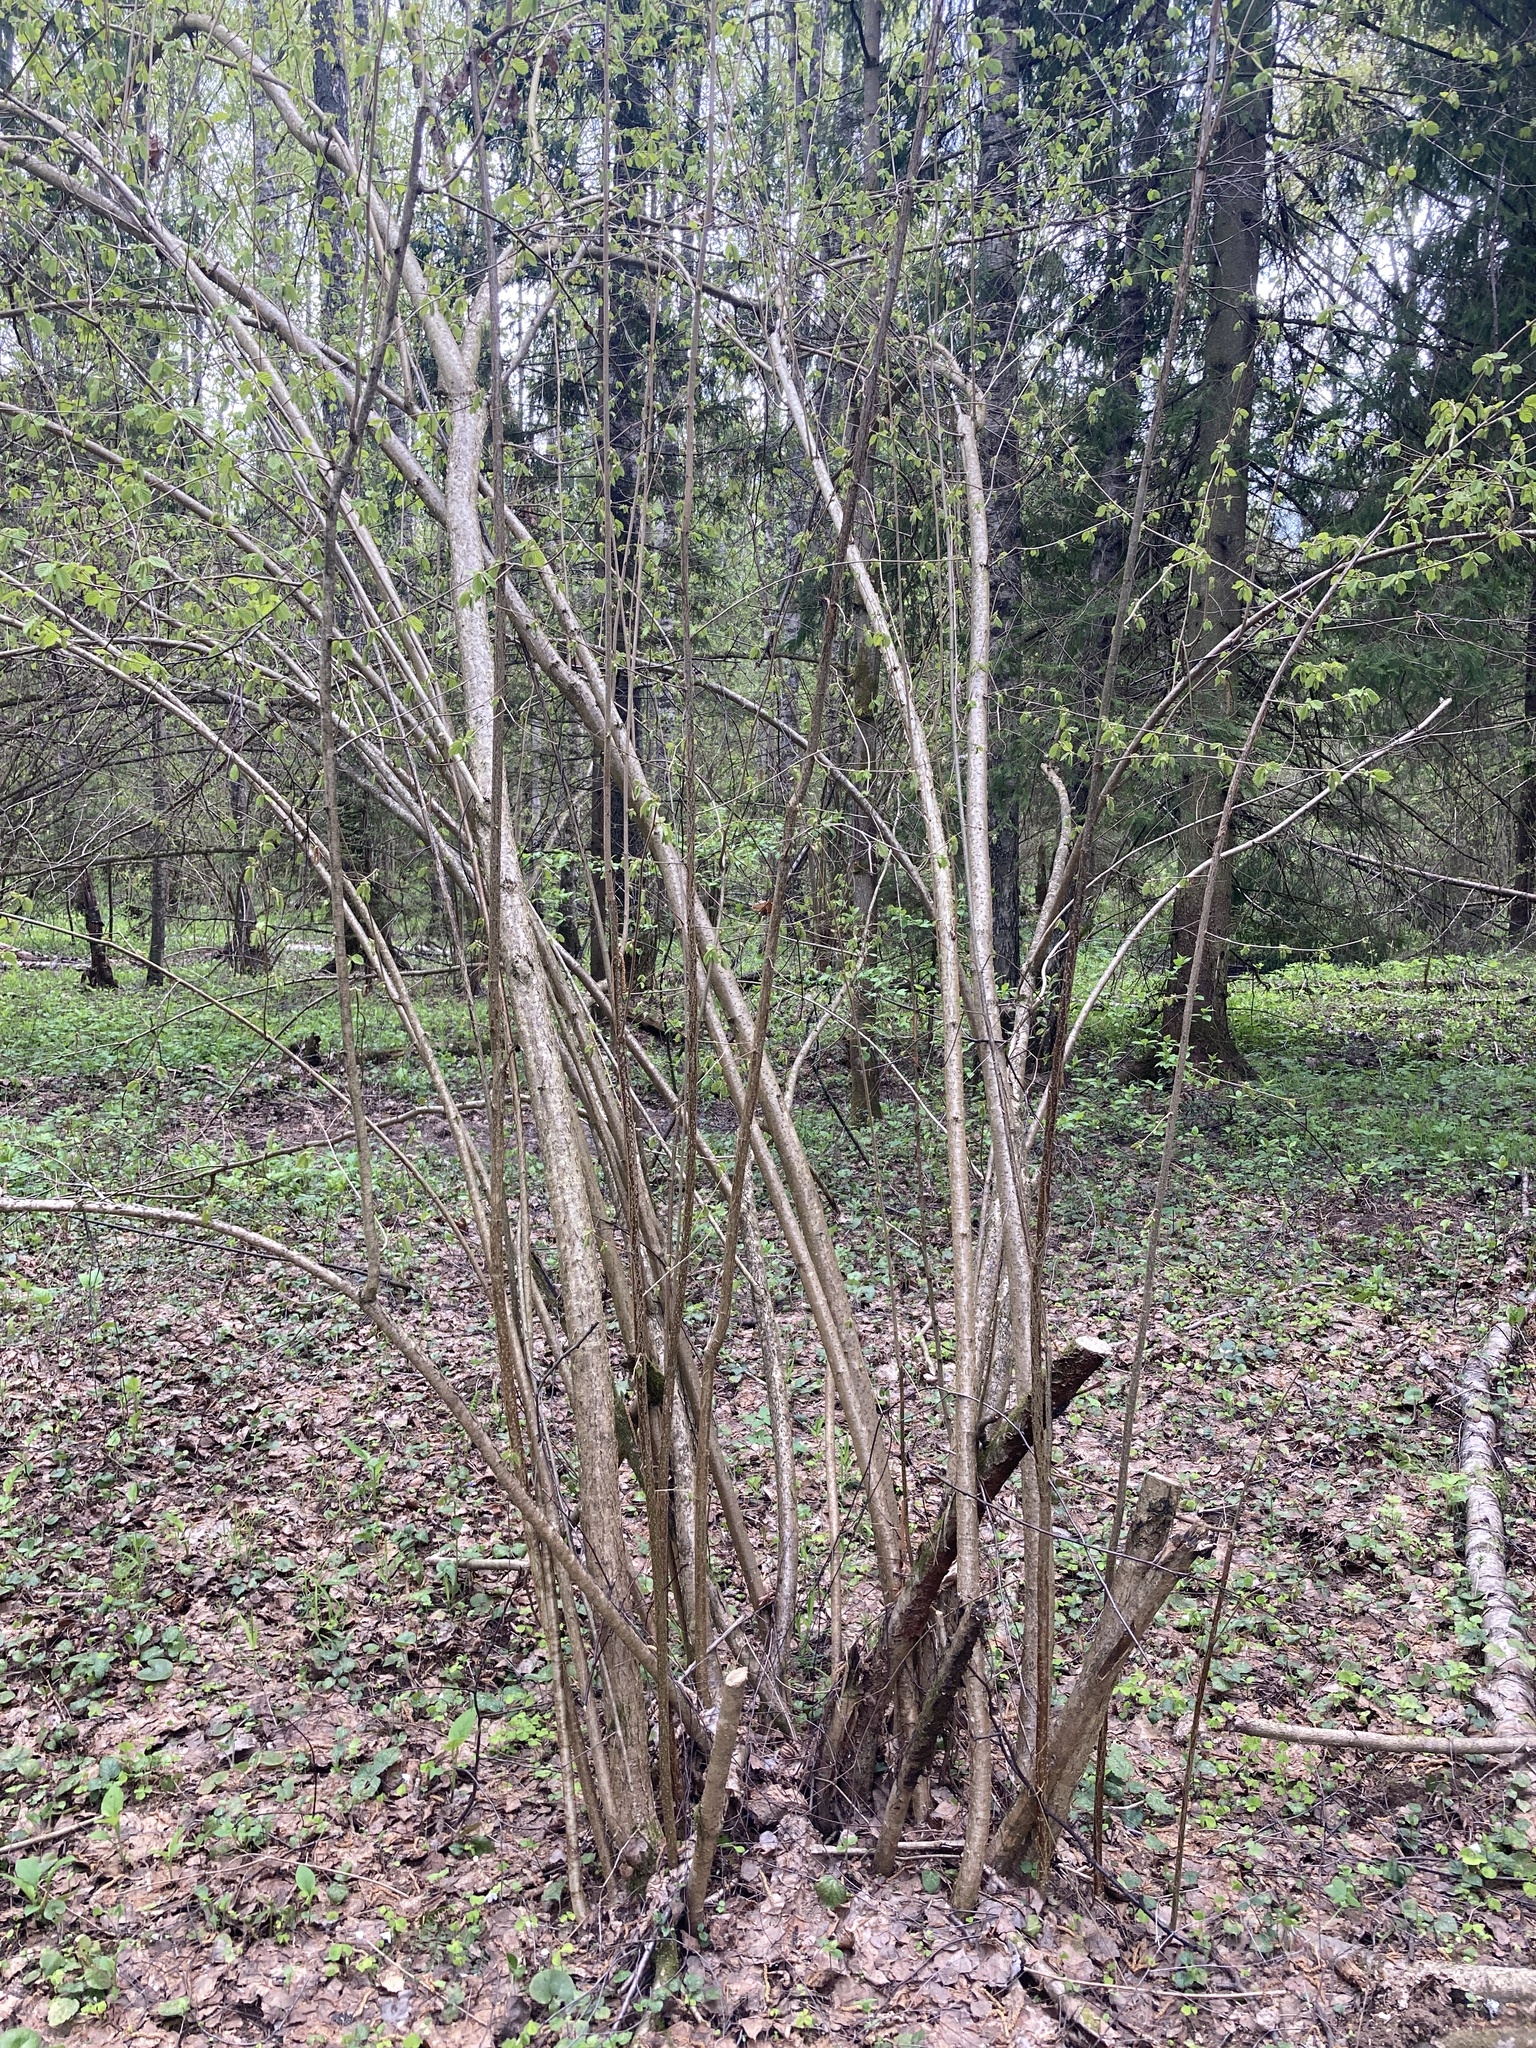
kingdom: Plantae
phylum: Tracheophyta
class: Magnoliopsida
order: Fagales
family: Betulaceae
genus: Corylus
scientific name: Corylus avellana
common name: European hazel
